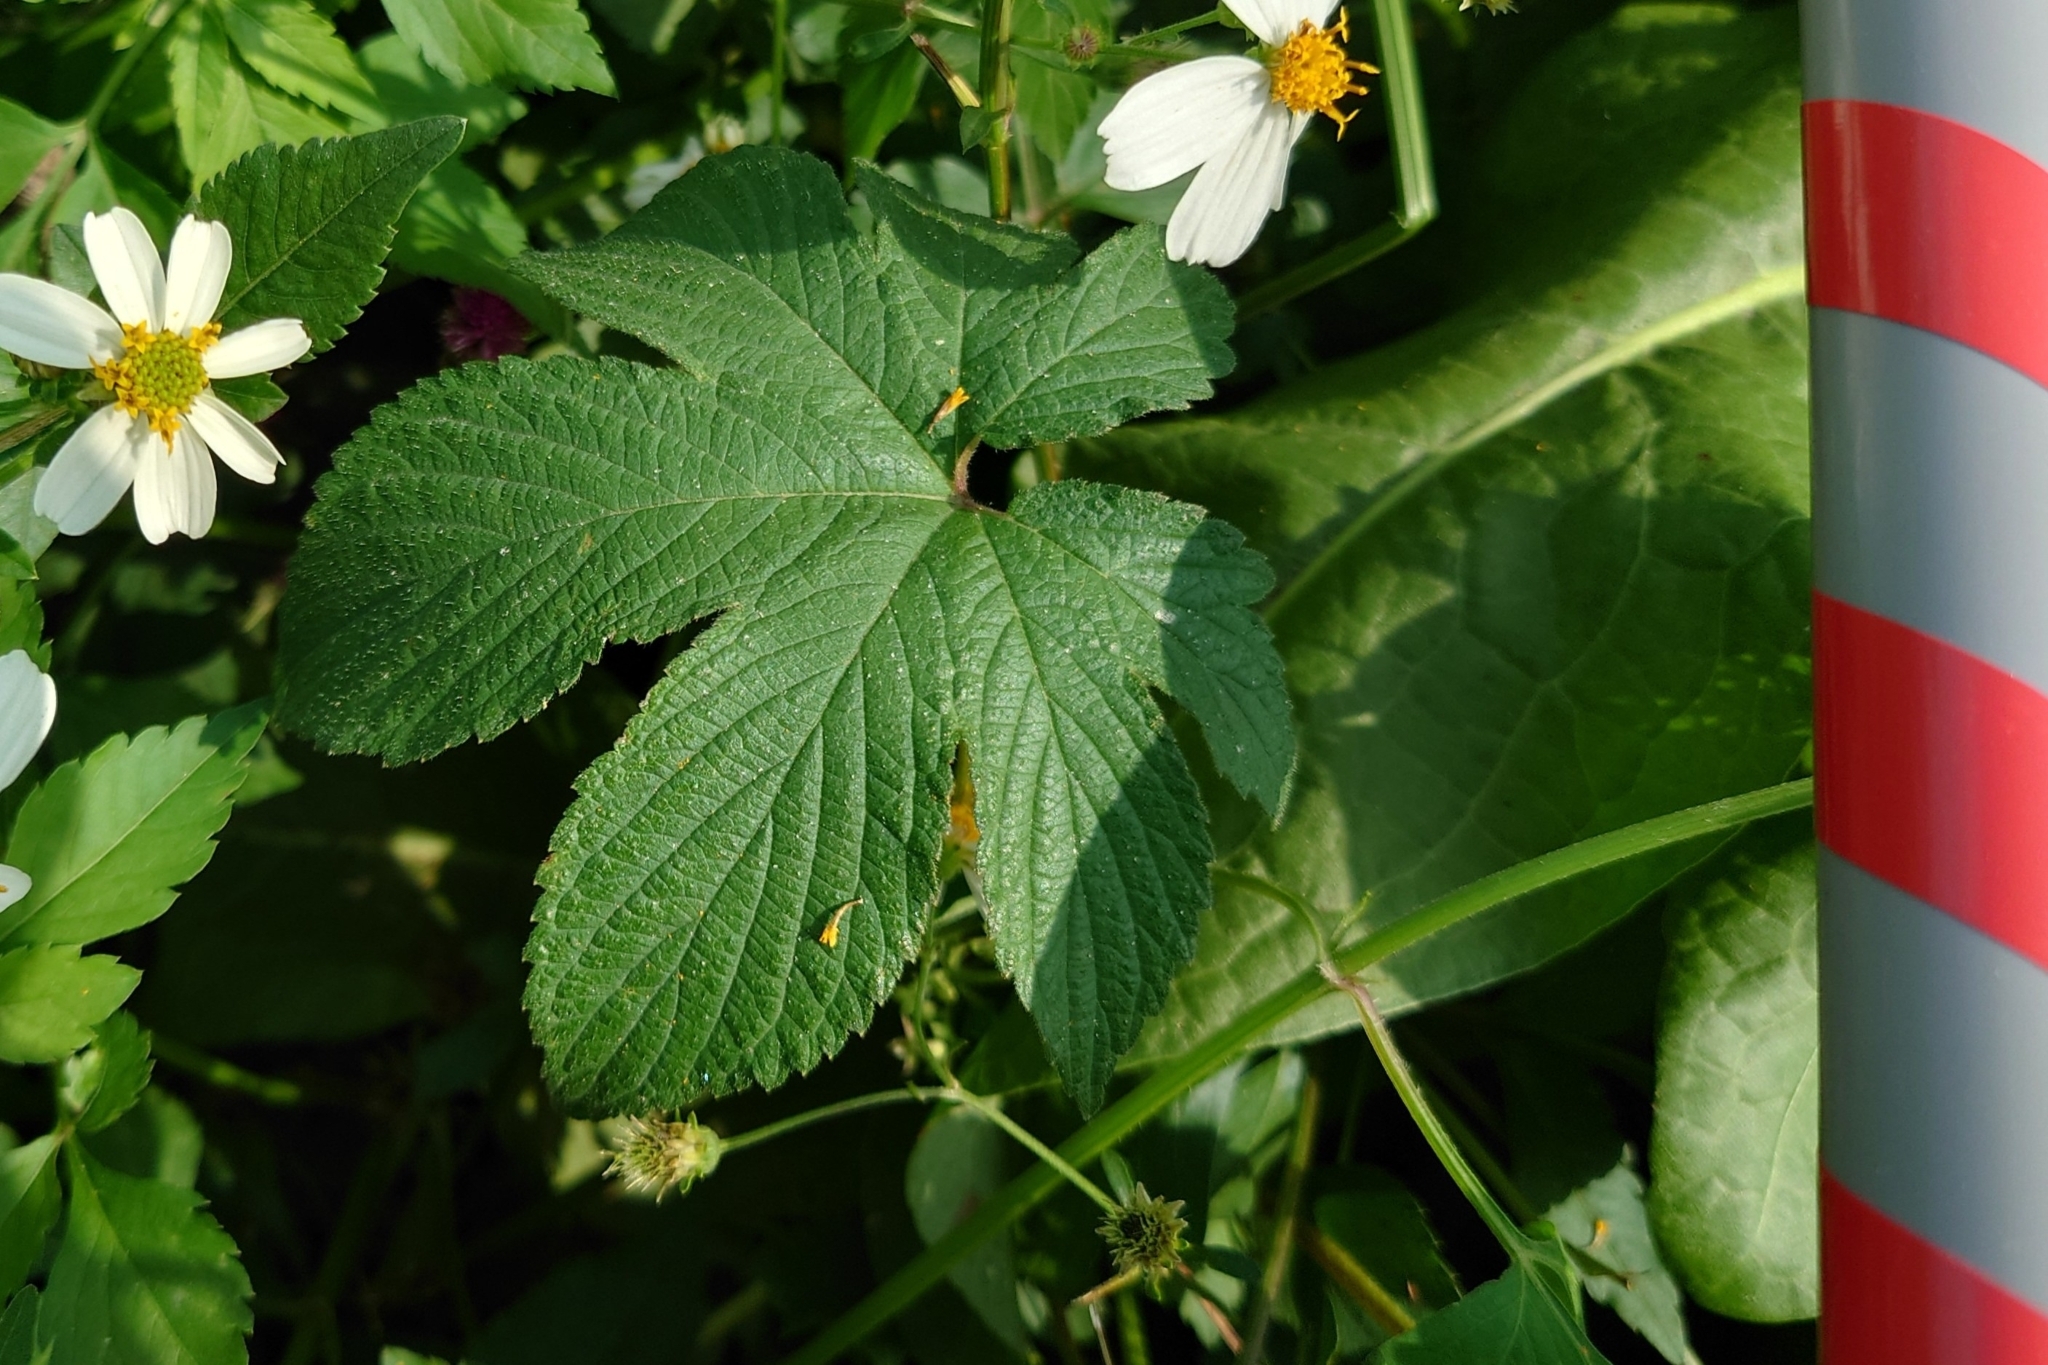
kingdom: Plantae
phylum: Tracheophyta
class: Magnoliopsida
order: Rosales
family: Cannabaceae
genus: Humulus
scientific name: Humulus scandens
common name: Japanese hop
